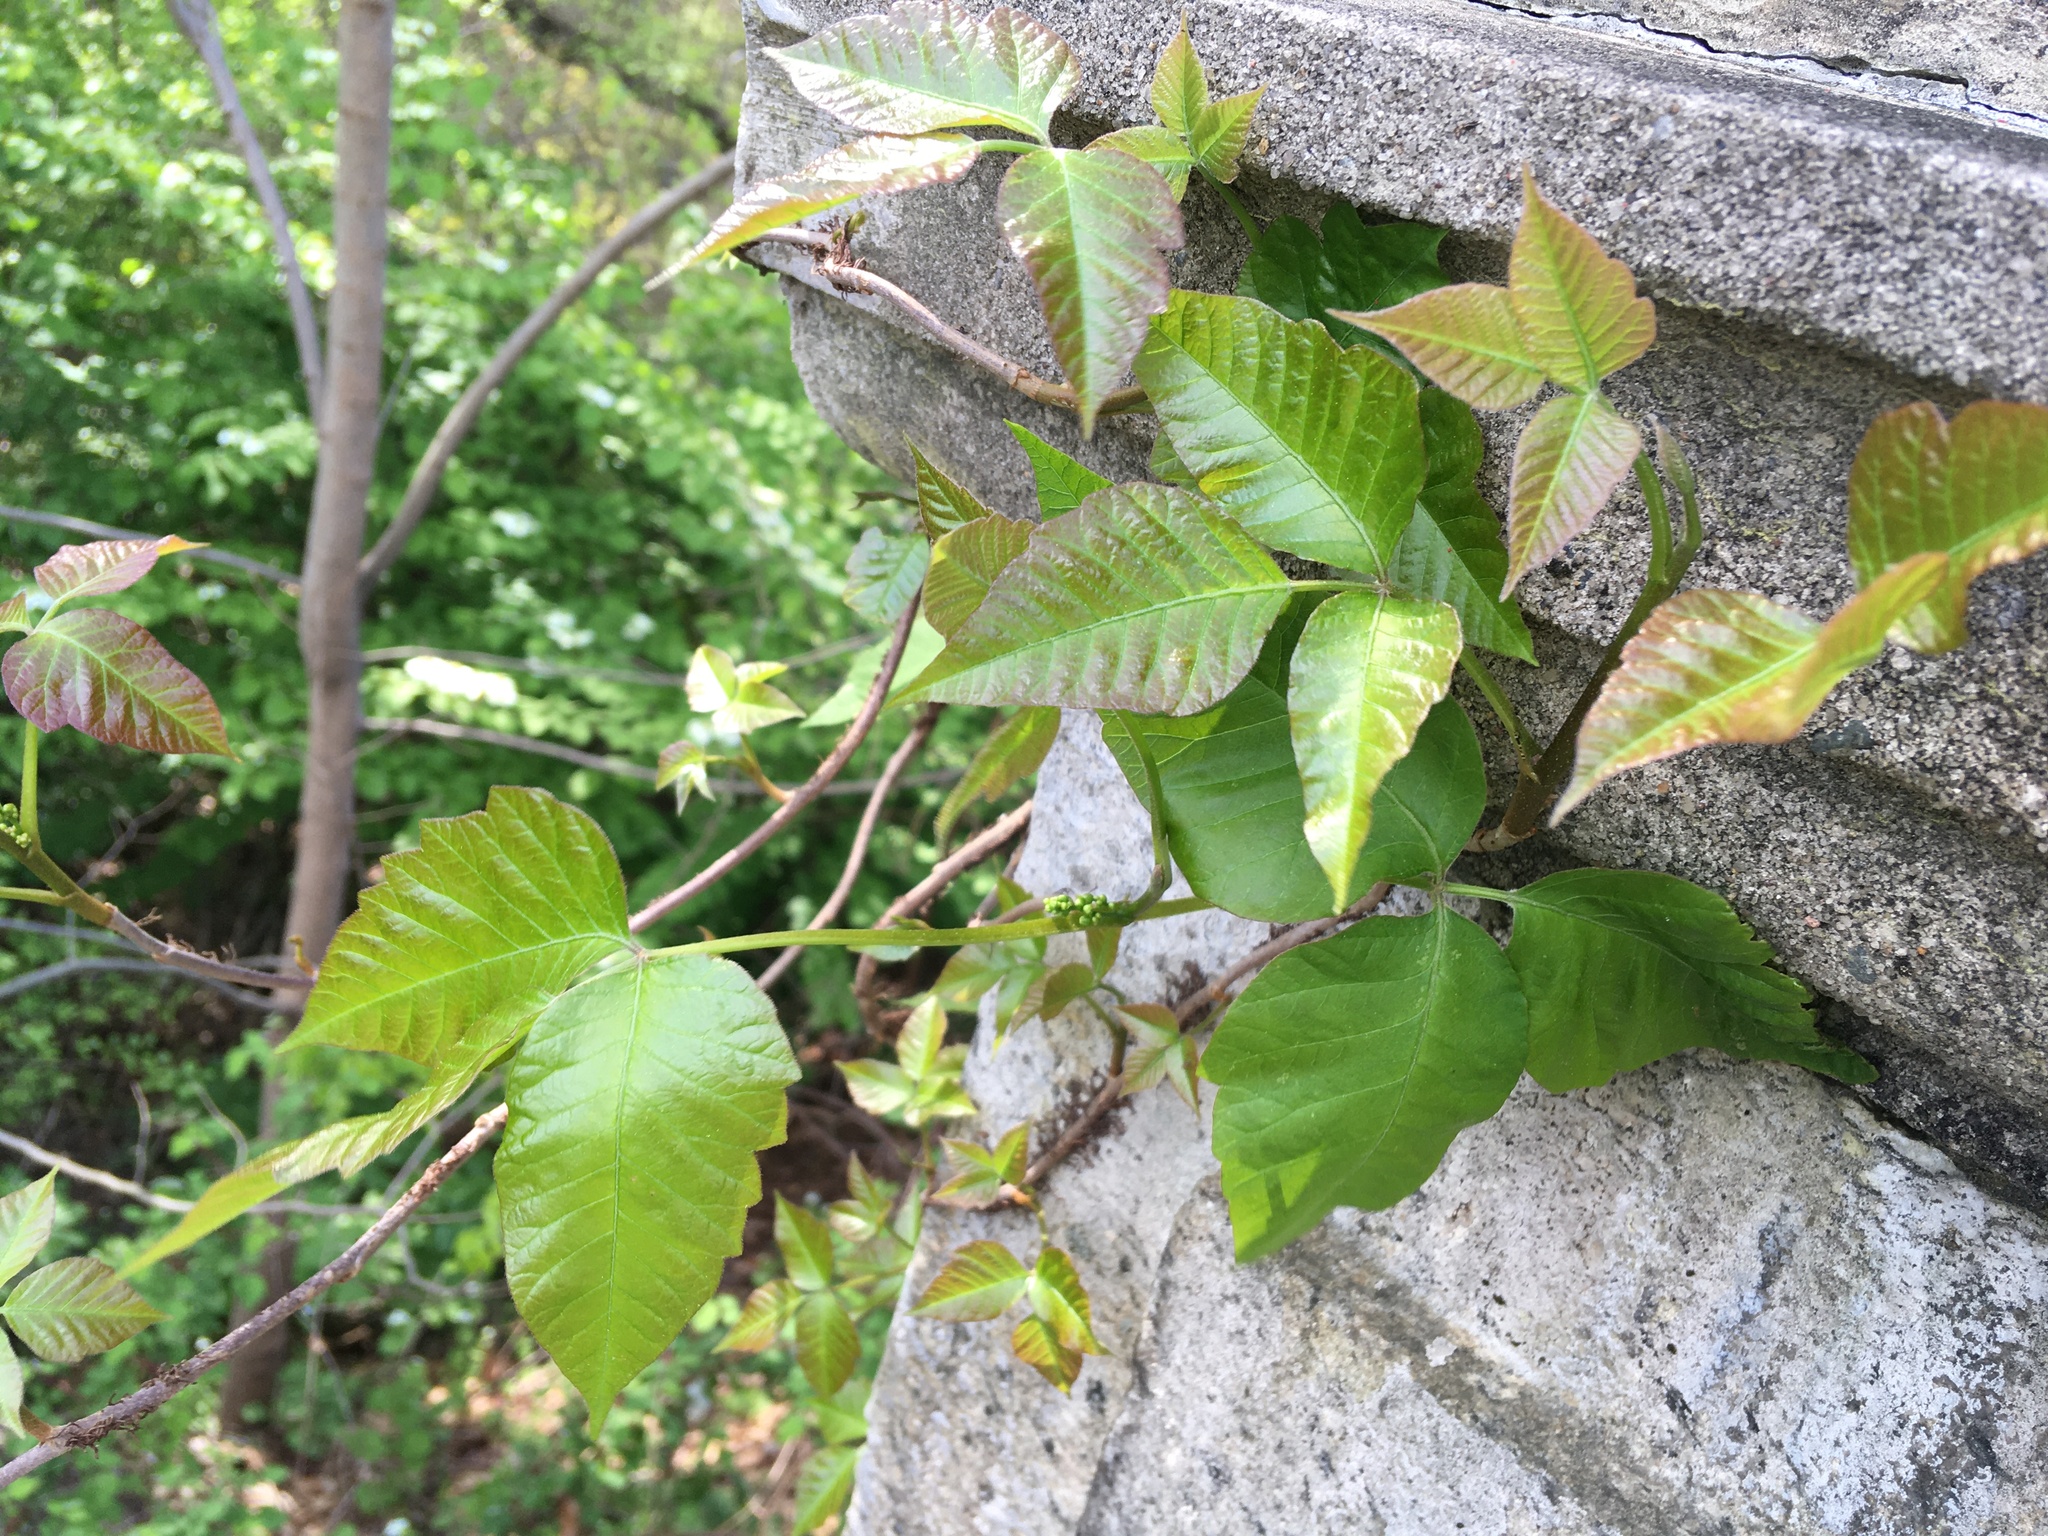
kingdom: Plantae
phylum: Tracheophyta
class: Magnoliopsida
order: Sapindales
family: Anacardiaceae
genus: Toxicodendron
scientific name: Toxicodendron radicans
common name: Poison ivy
